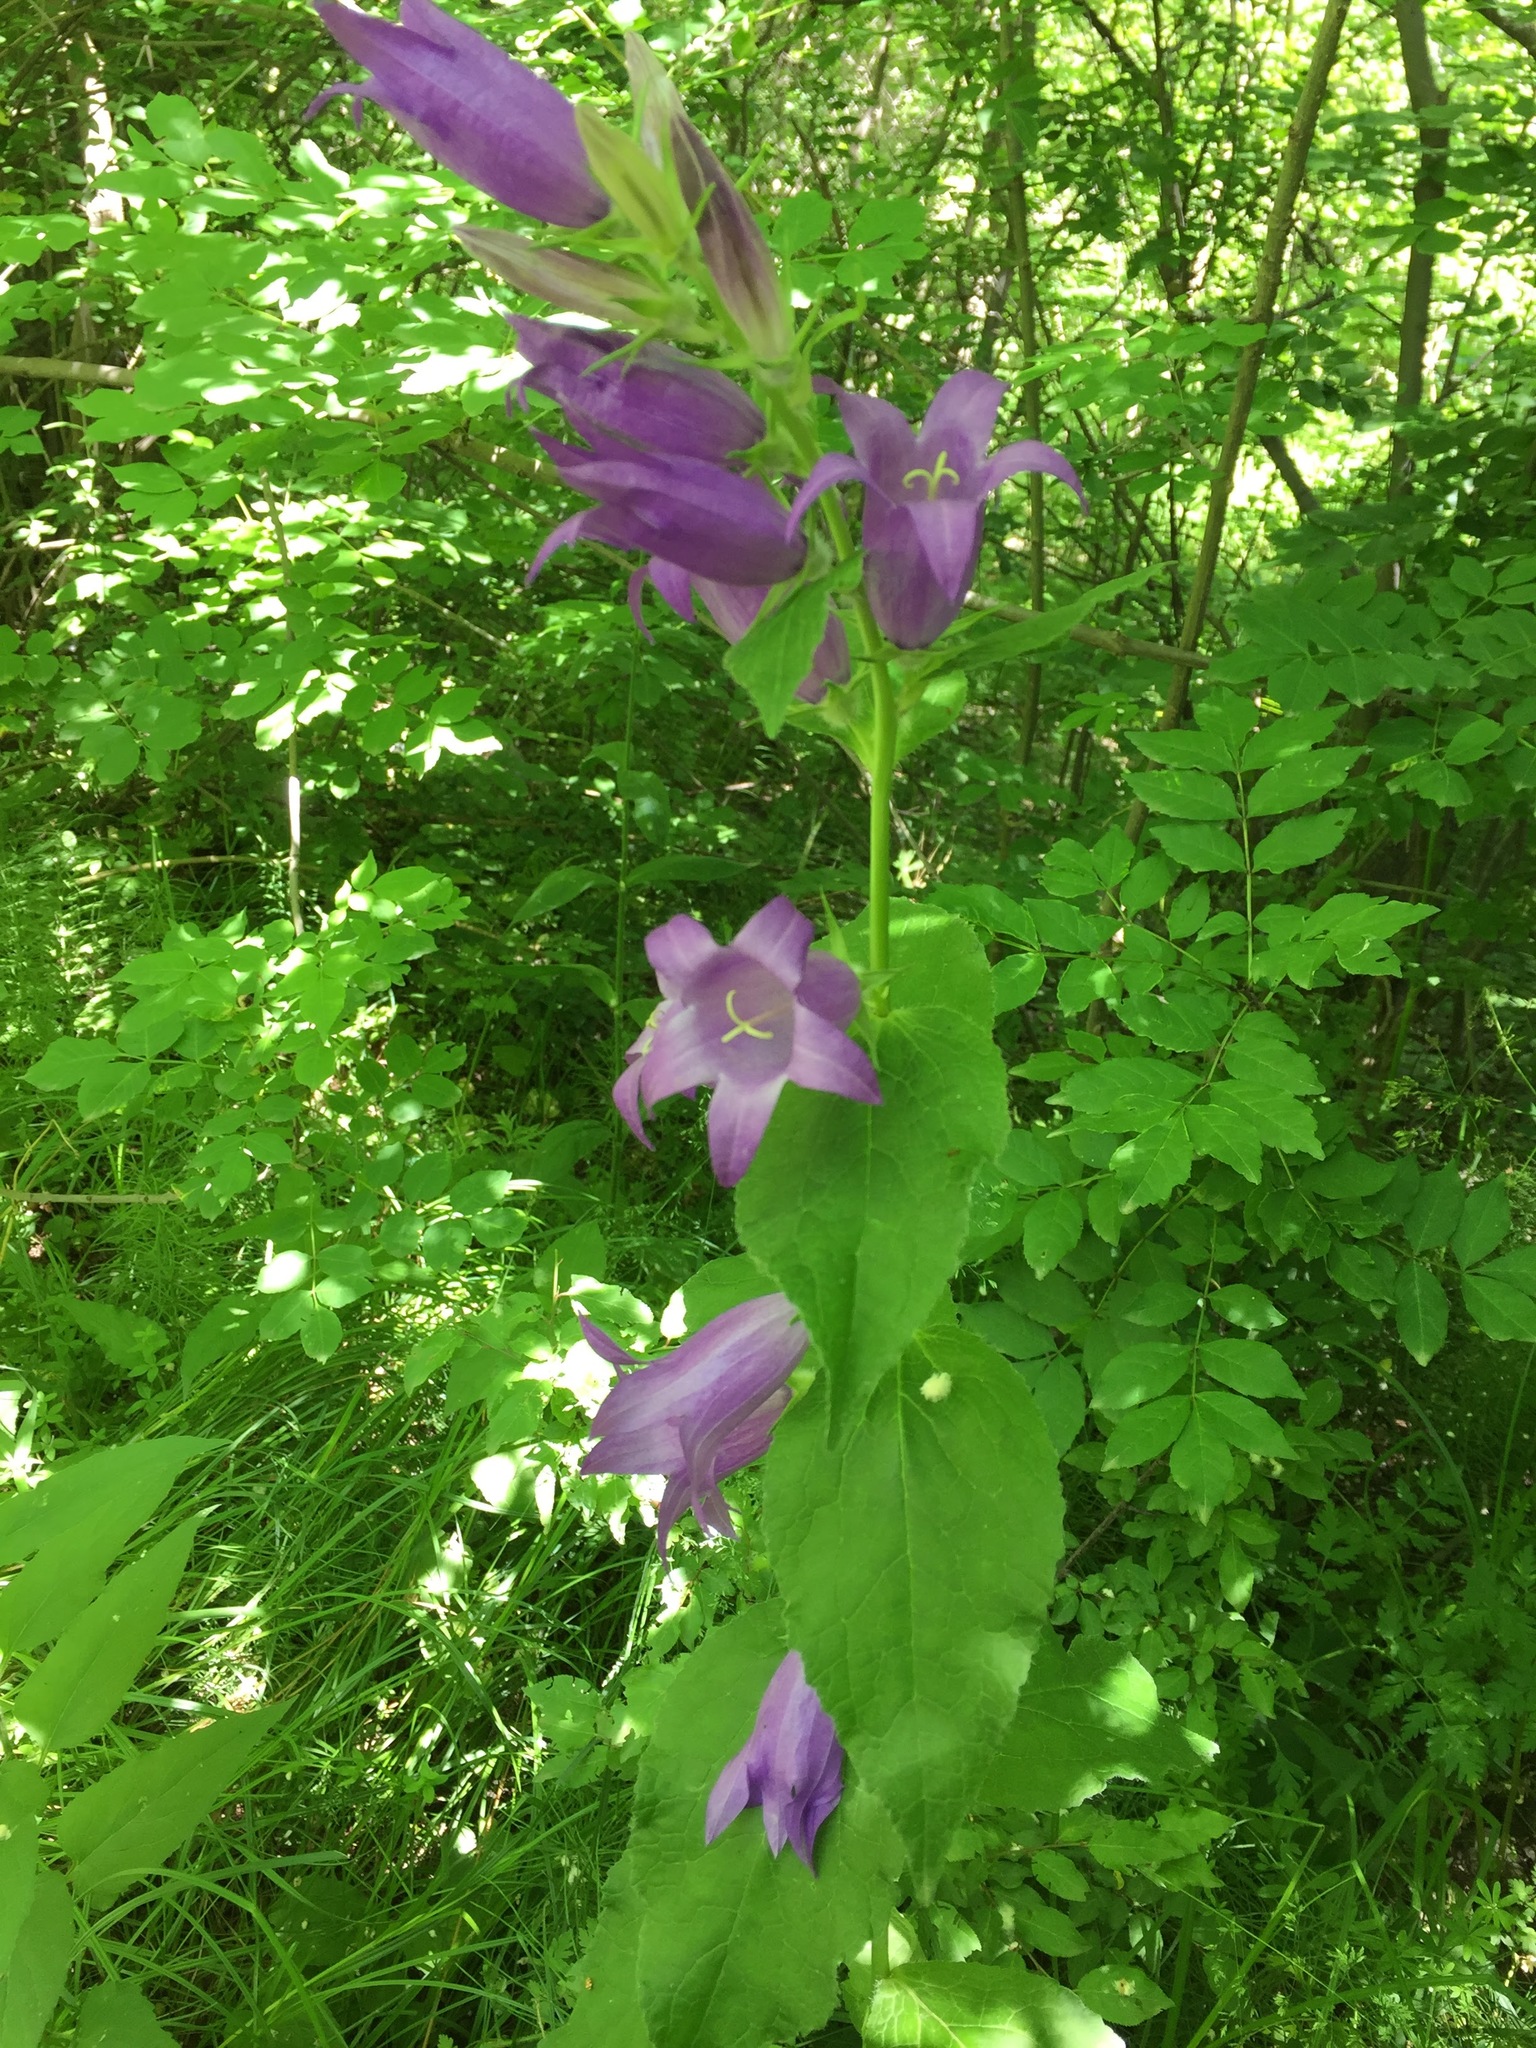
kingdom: Plantae
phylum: Tracheophyta
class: Magnoliopsida
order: Asterales
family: Campanulaceae
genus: Campanula
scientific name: Campanula latifolia
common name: Giant bellflower
